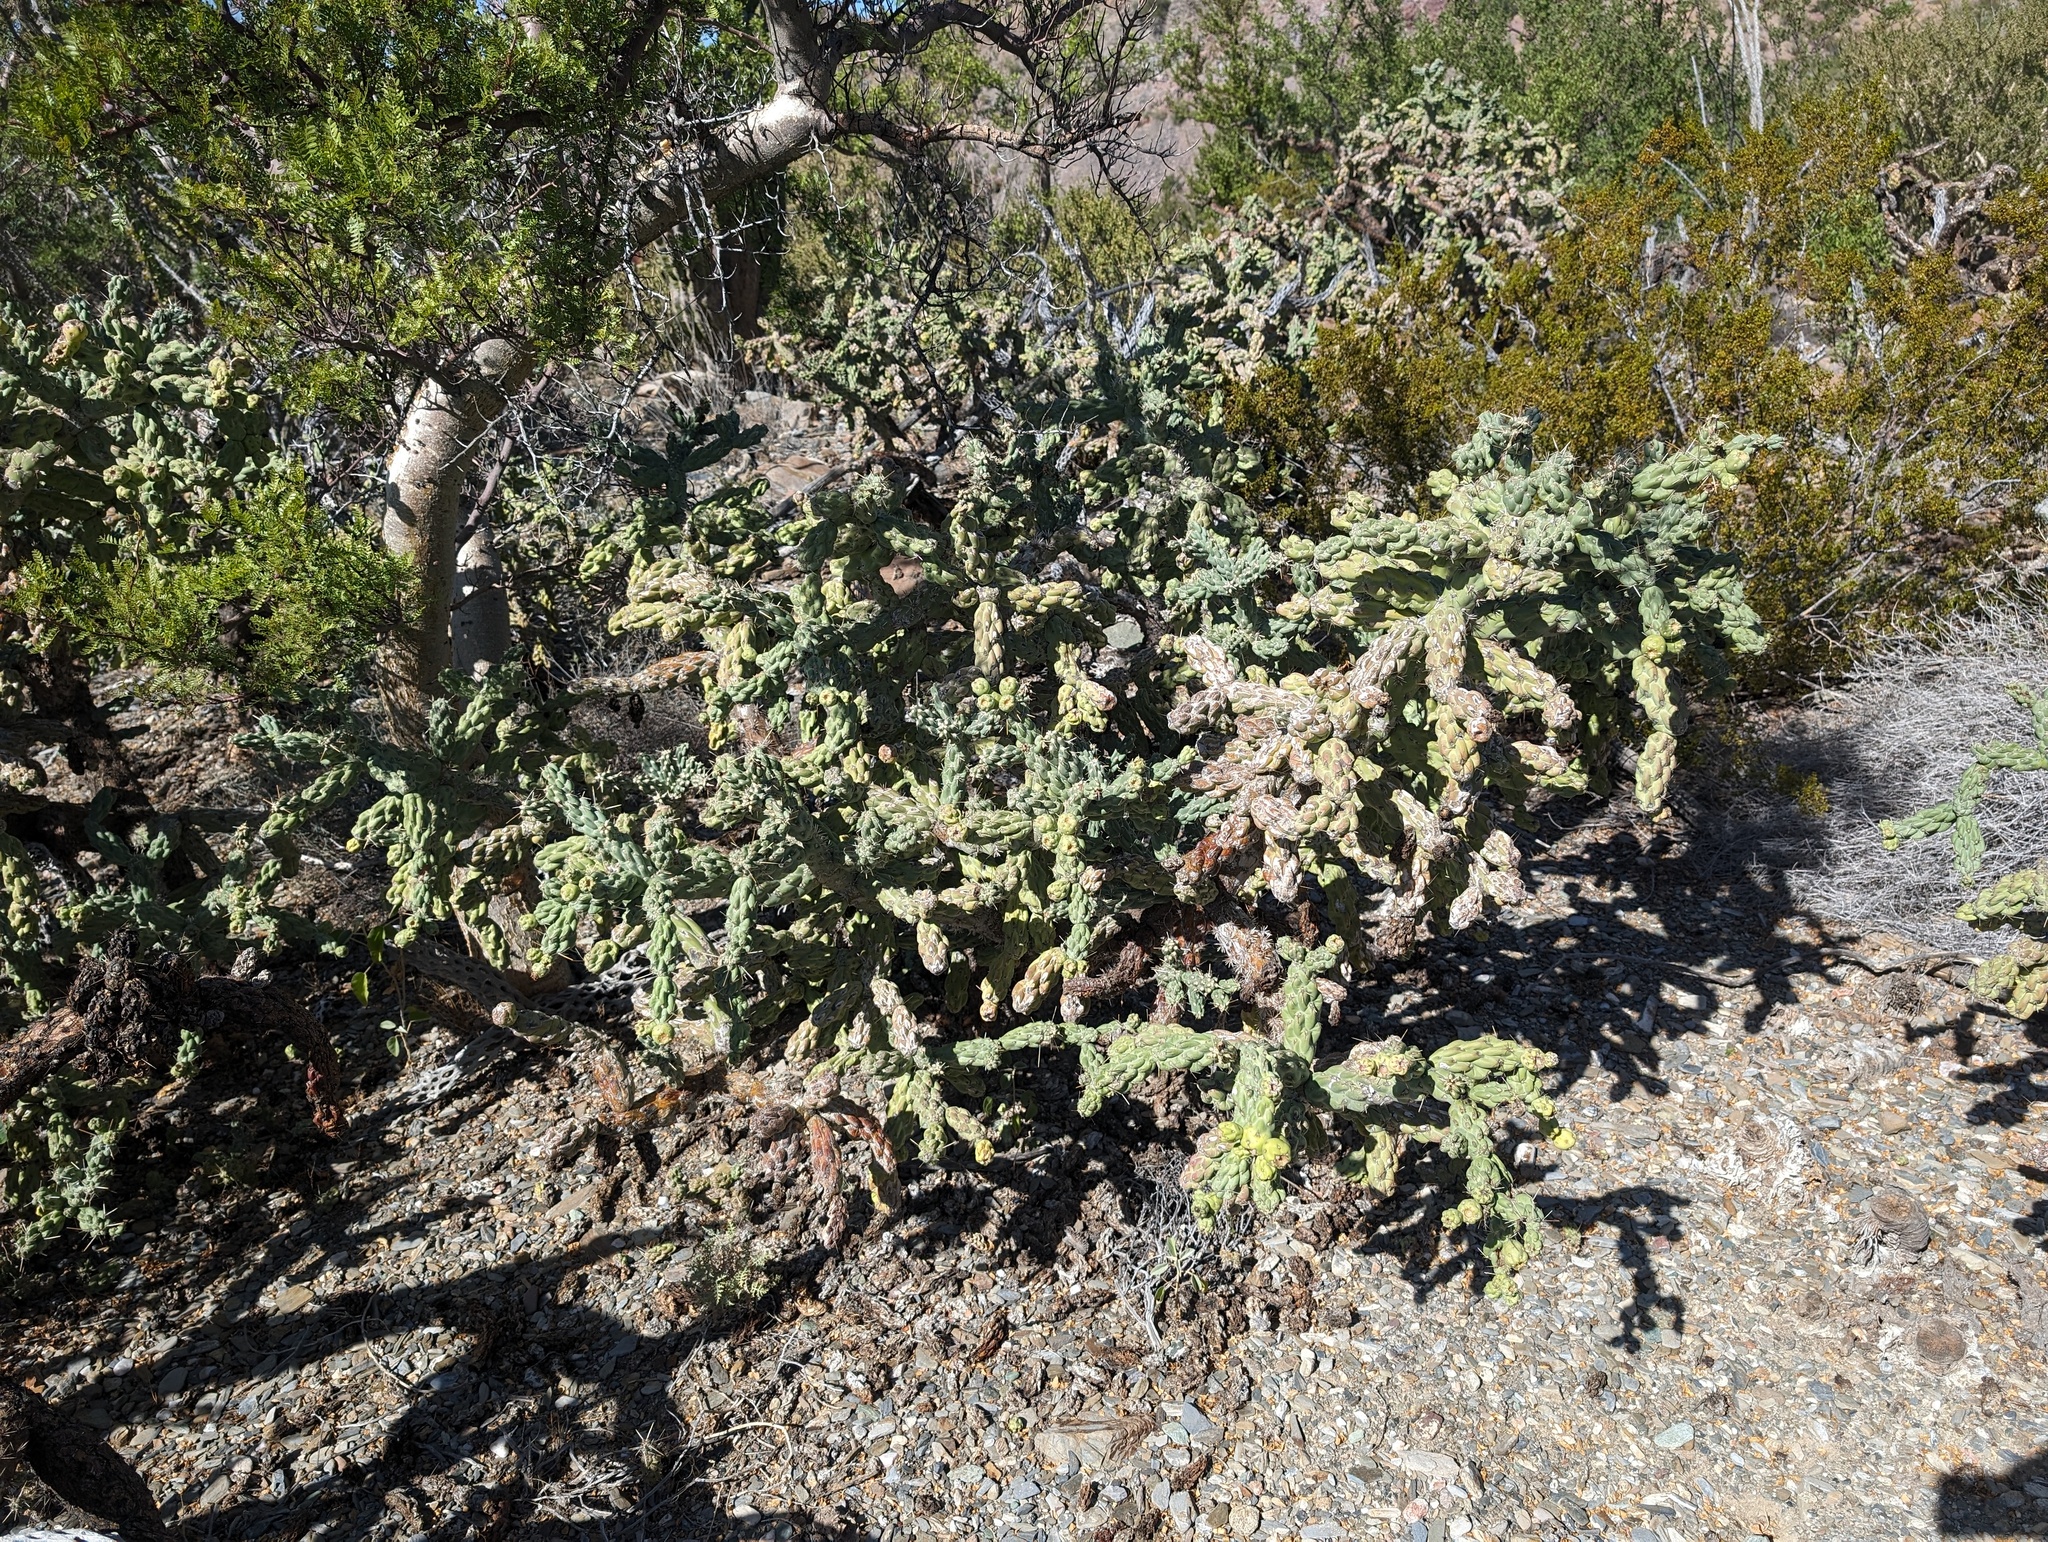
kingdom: Plantae
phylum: Tracheophyta
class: Magnoliopsida
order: Caryophyllales
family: Cactaceae
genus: Cylindropuntia
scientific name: Cylindropuntia cholla
